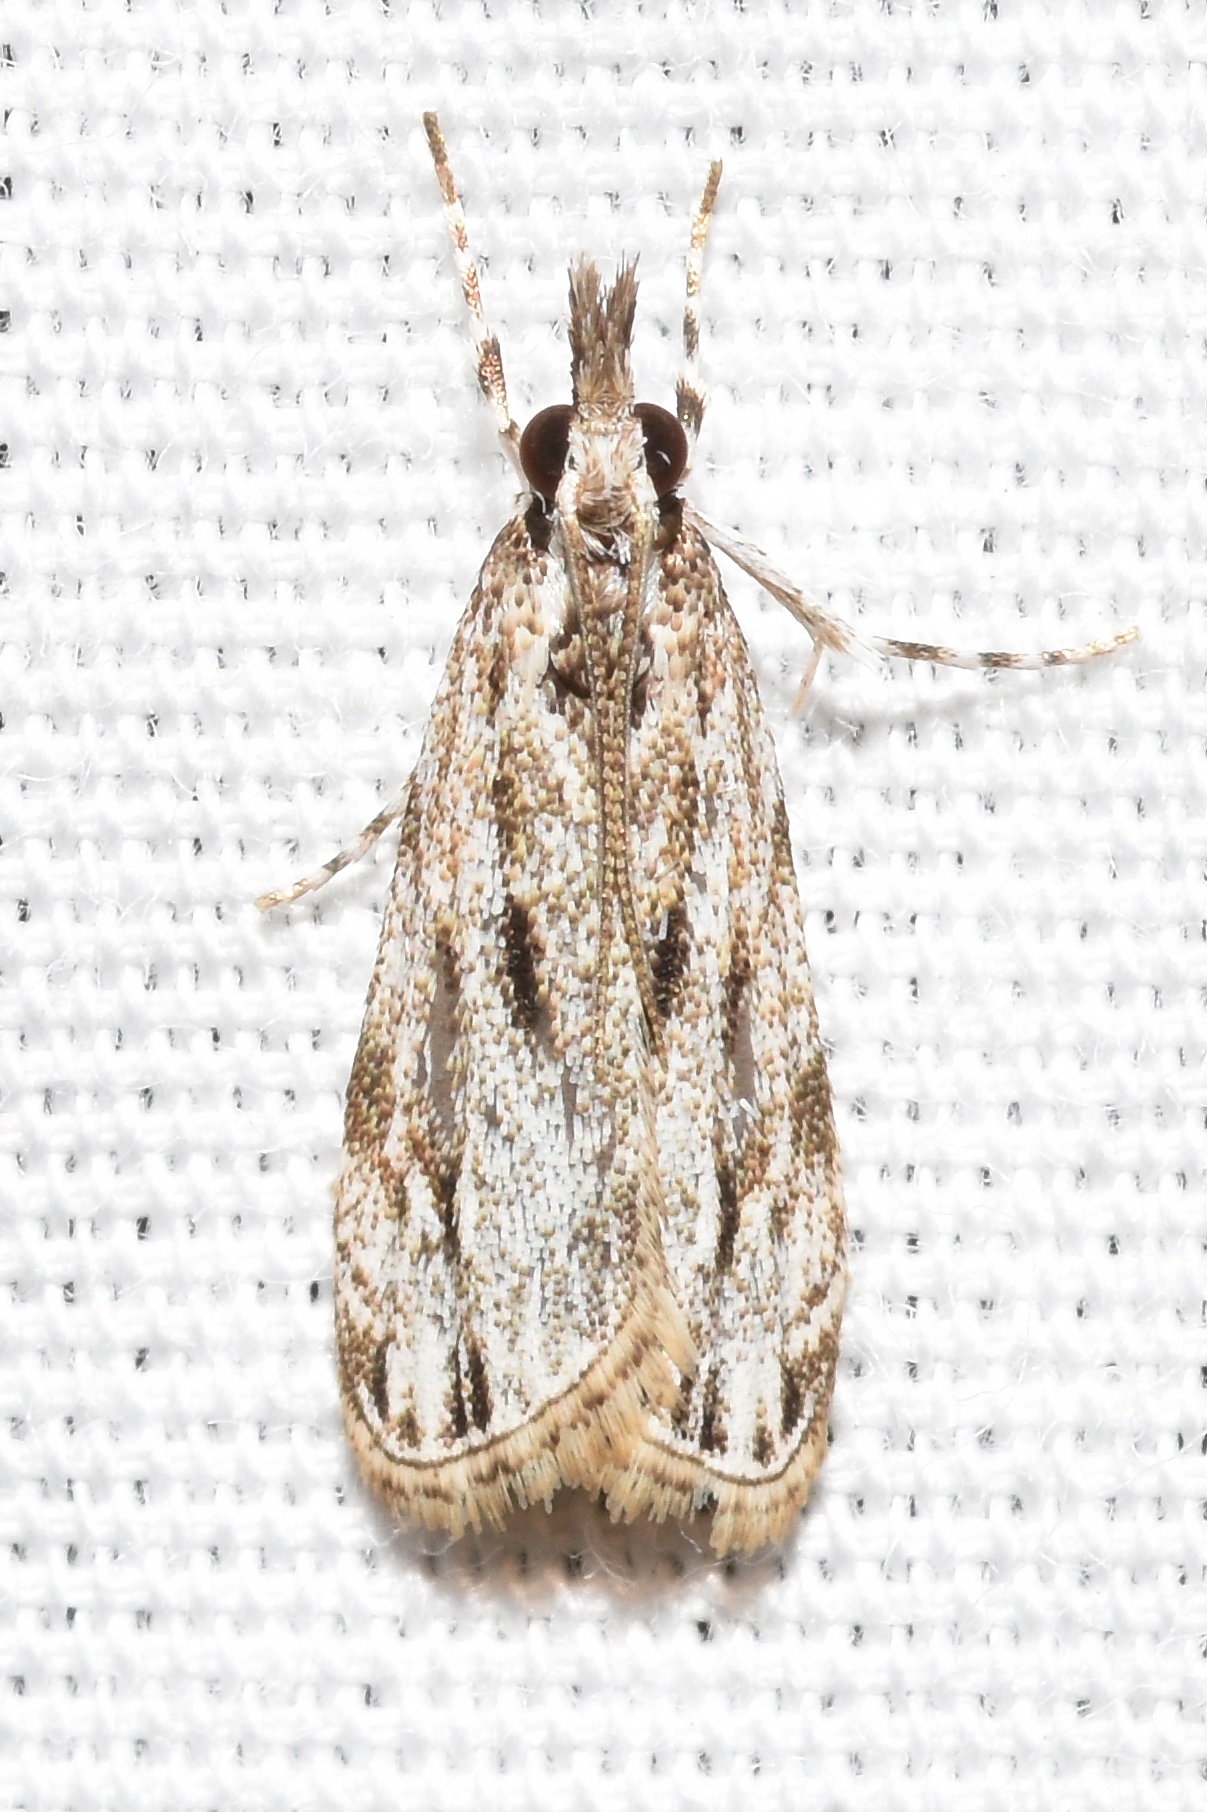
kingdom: Animalia
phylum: Arthropoda
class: Insecta
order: Lepidoptera
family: Crambidae
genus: Eudonia
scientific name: Eudonia strigalis
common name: Striped eudonia moth
